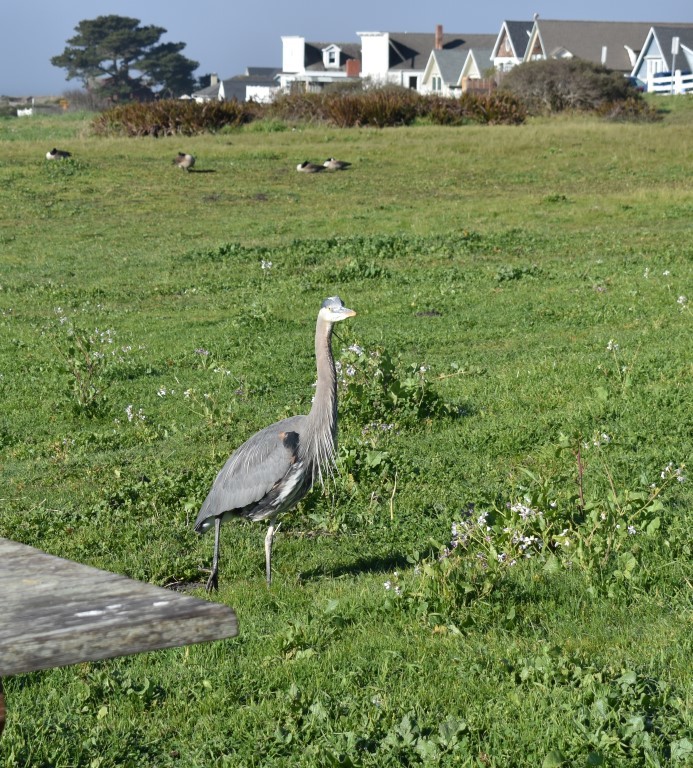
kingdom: Animalia
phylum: Chordata
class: Aves
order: Pelecaniformes
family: Ardeidae
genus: Ardea
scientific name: Ardea herodias
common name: Great blue heron
